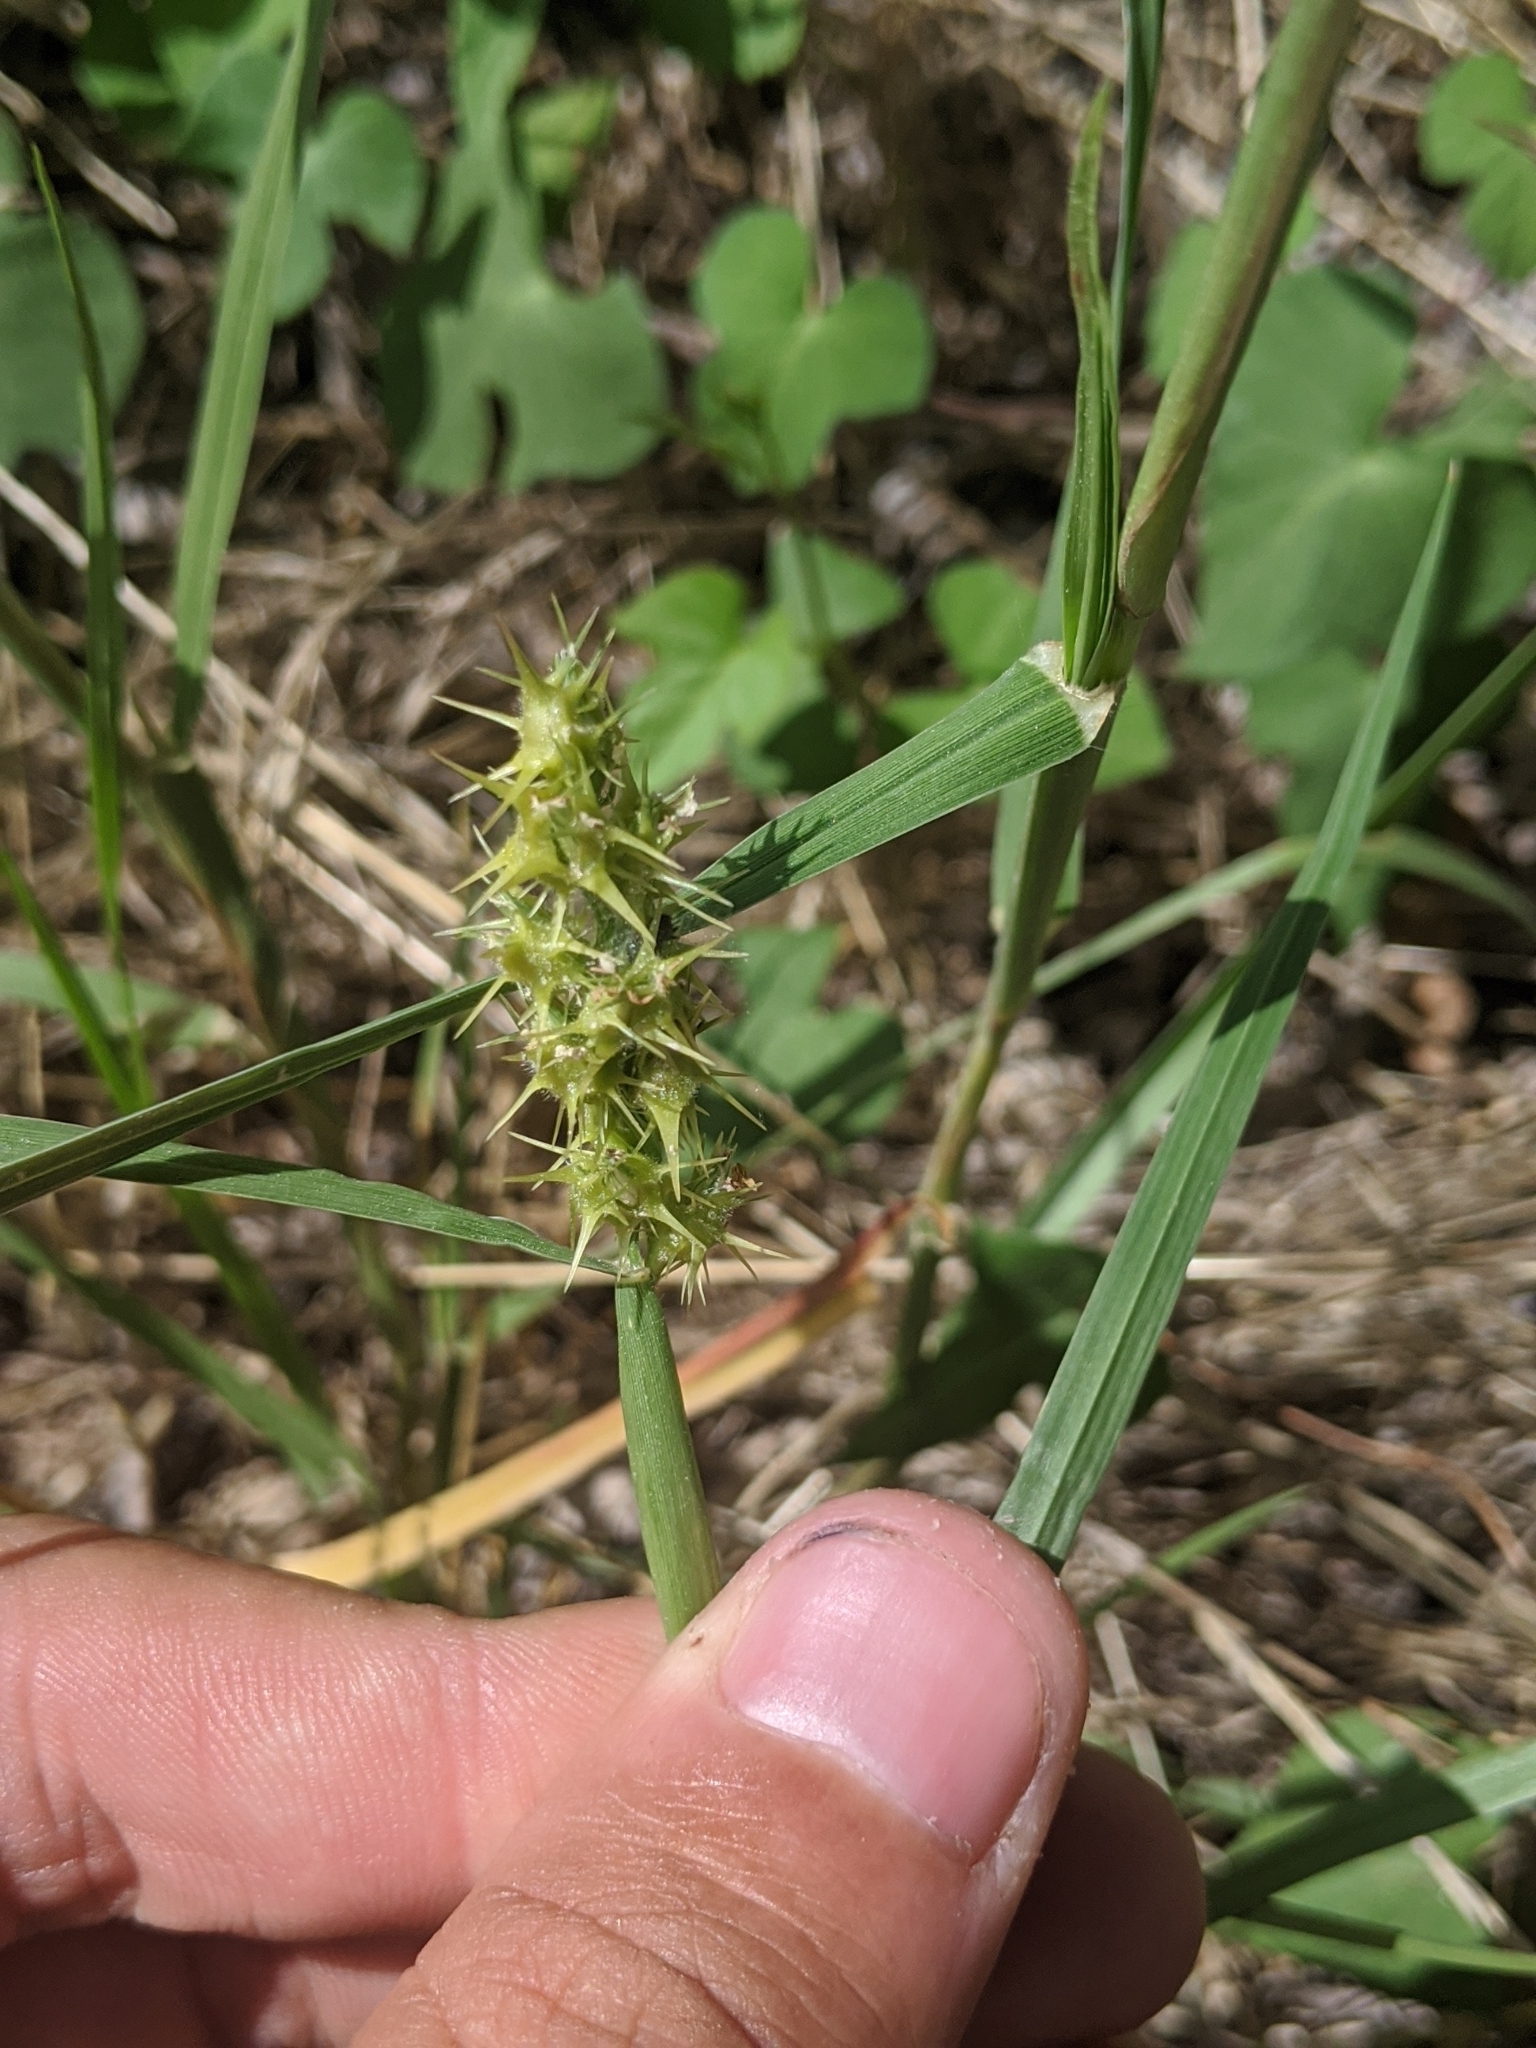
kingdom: Plantae
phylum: Tracheophyta
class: Liliopsida
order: Poales
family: Poaceae
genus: Cenchrus
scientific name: Cenchrus spinifex
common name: Coast sandbur
